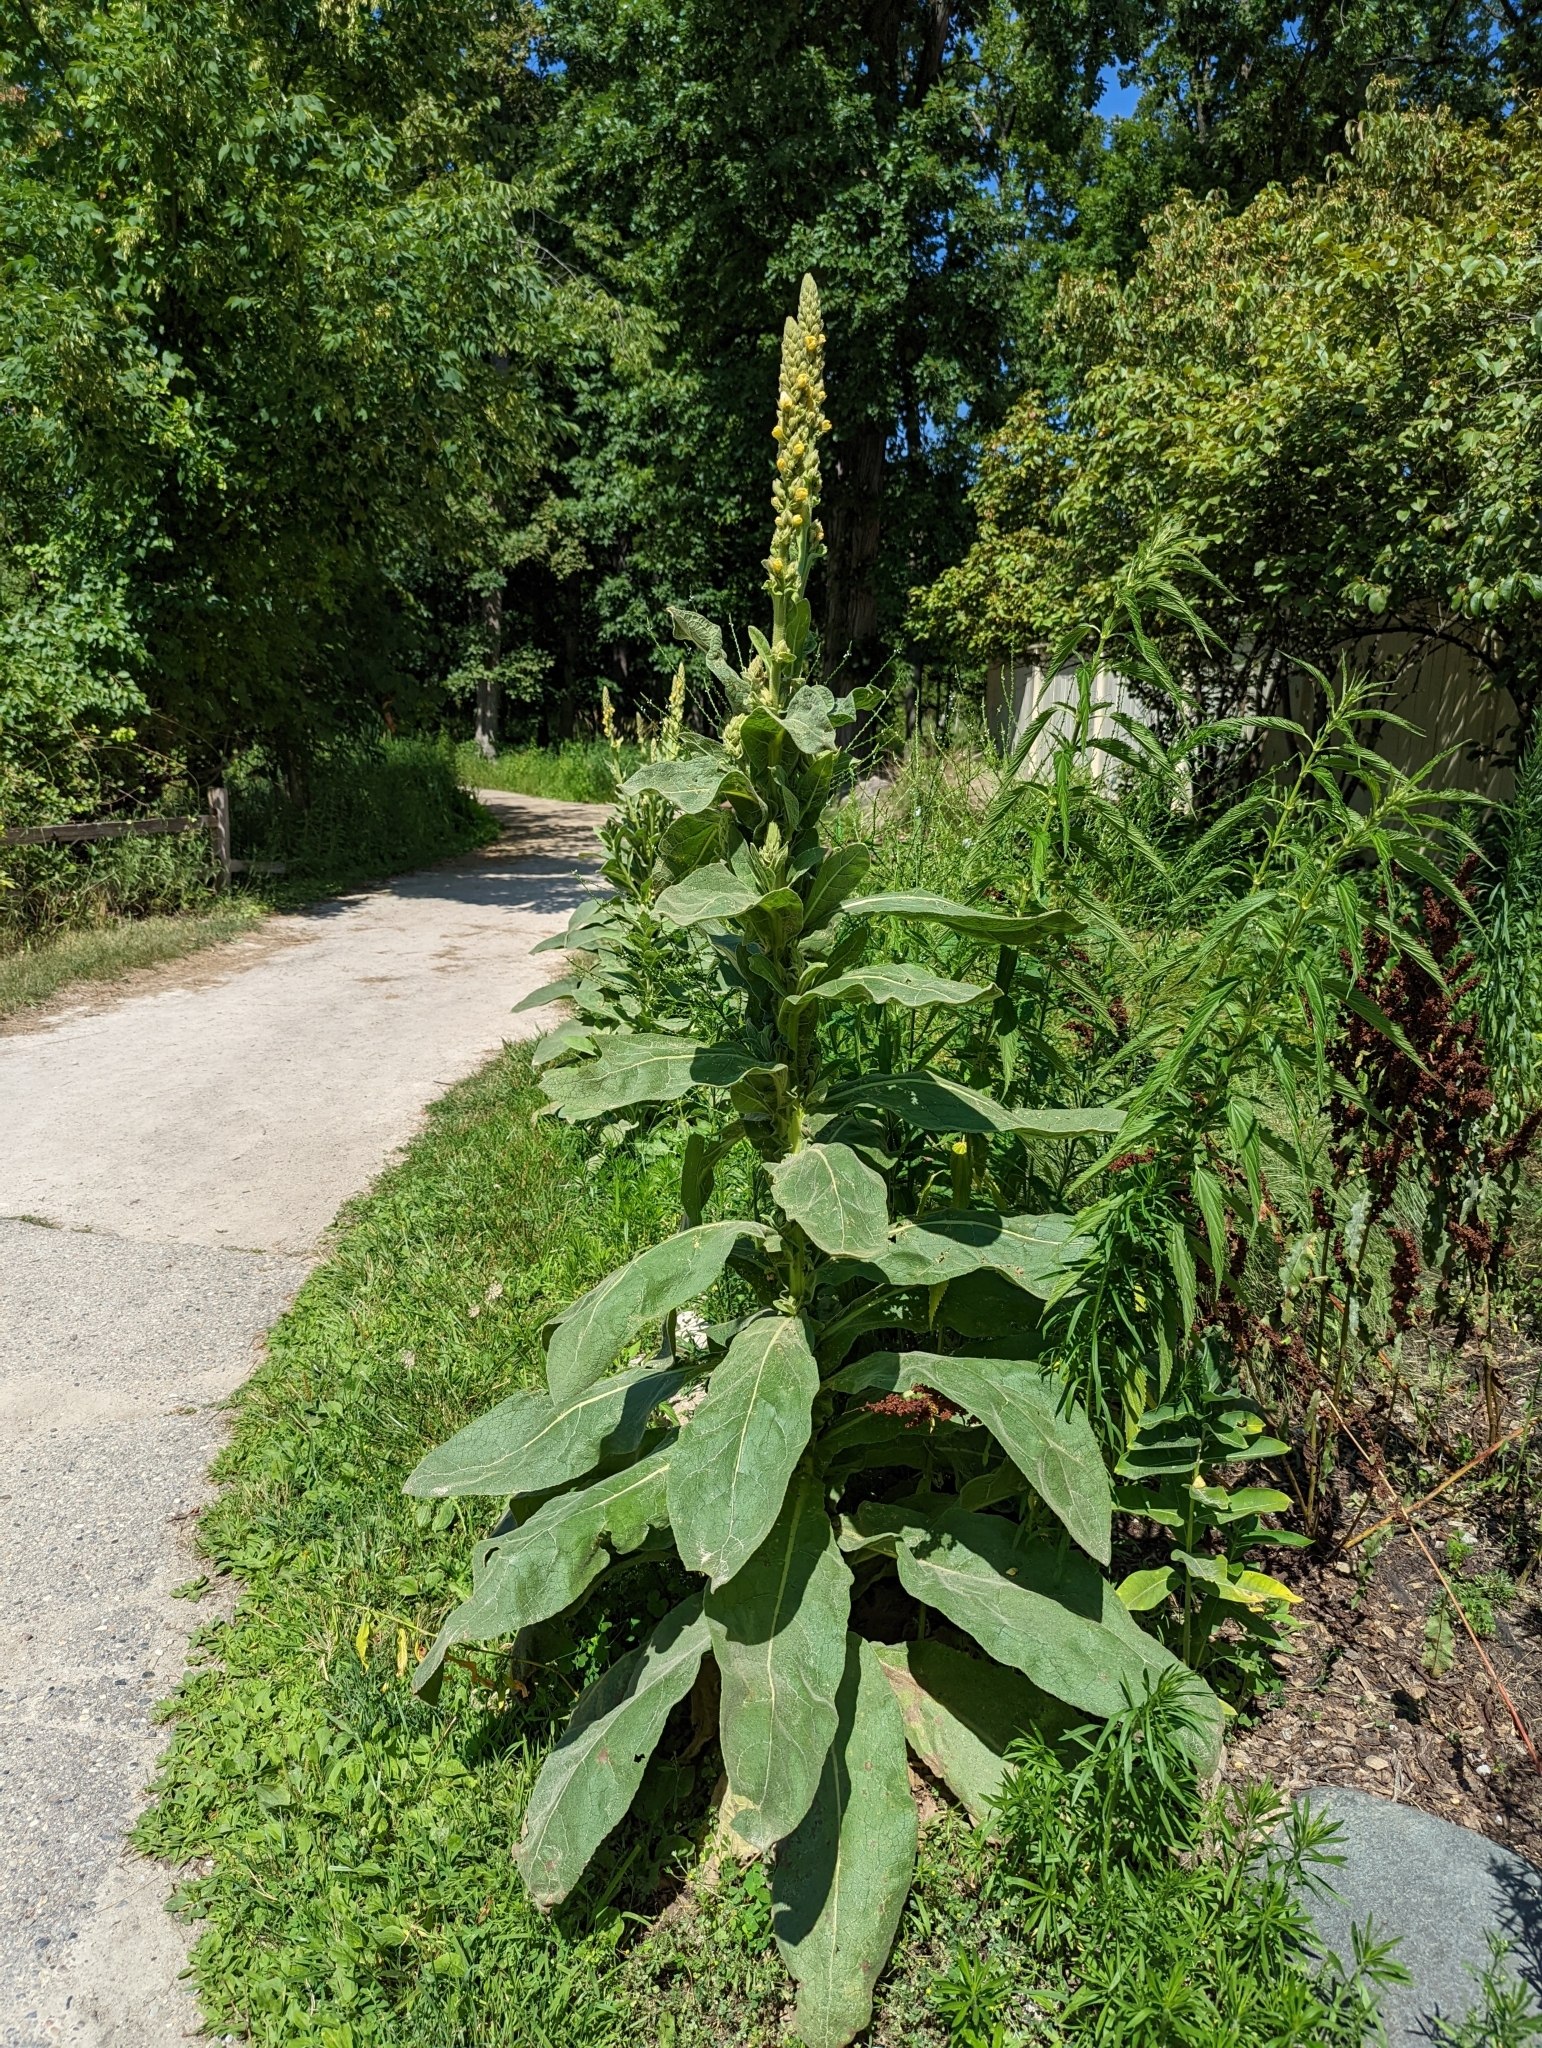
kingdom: Plantae
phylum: Tracheophyta
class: Magnoliopsida
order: Lamiales
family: Scrophulariaceae
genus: Verbascum
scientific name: Verbascum thapsus
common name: Common mullein
